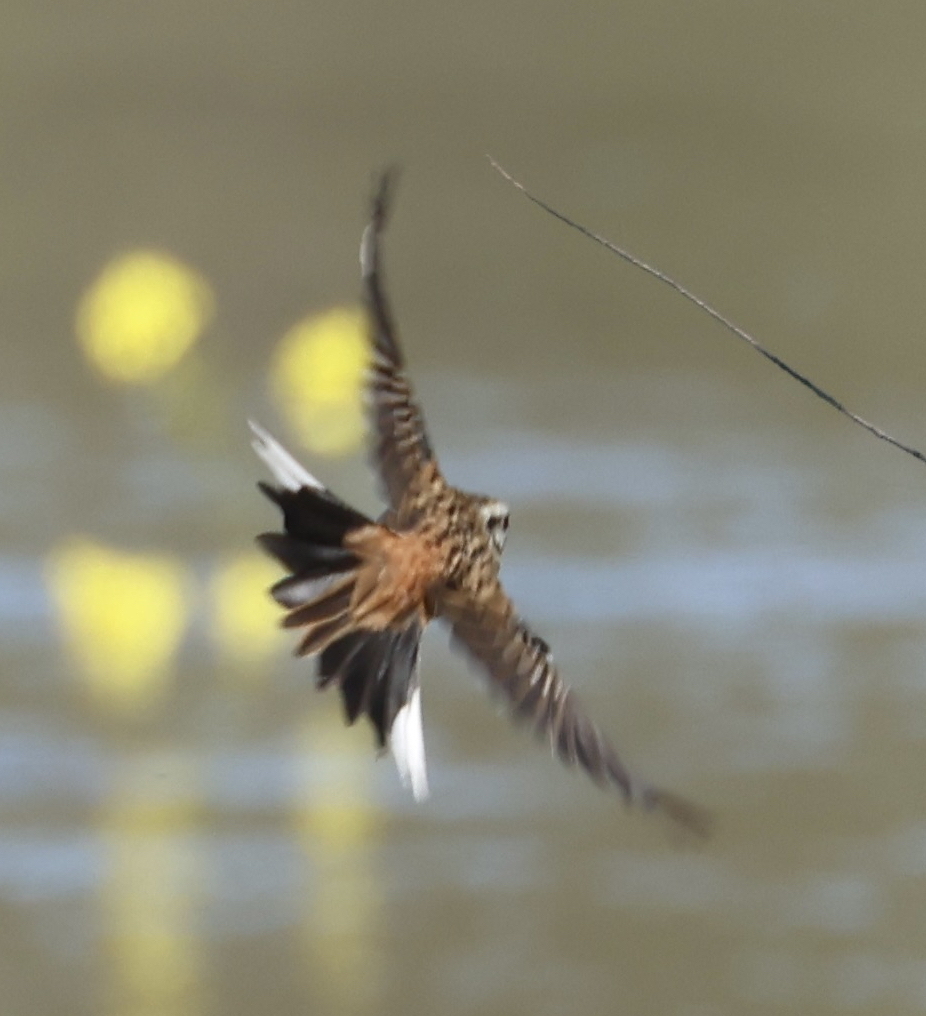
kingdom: Animalia
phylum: Chordata
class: Aves
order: Passeriformes
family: Emberizidae
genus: Emberiza
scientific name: Emberiza cia
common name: Rock bunting
